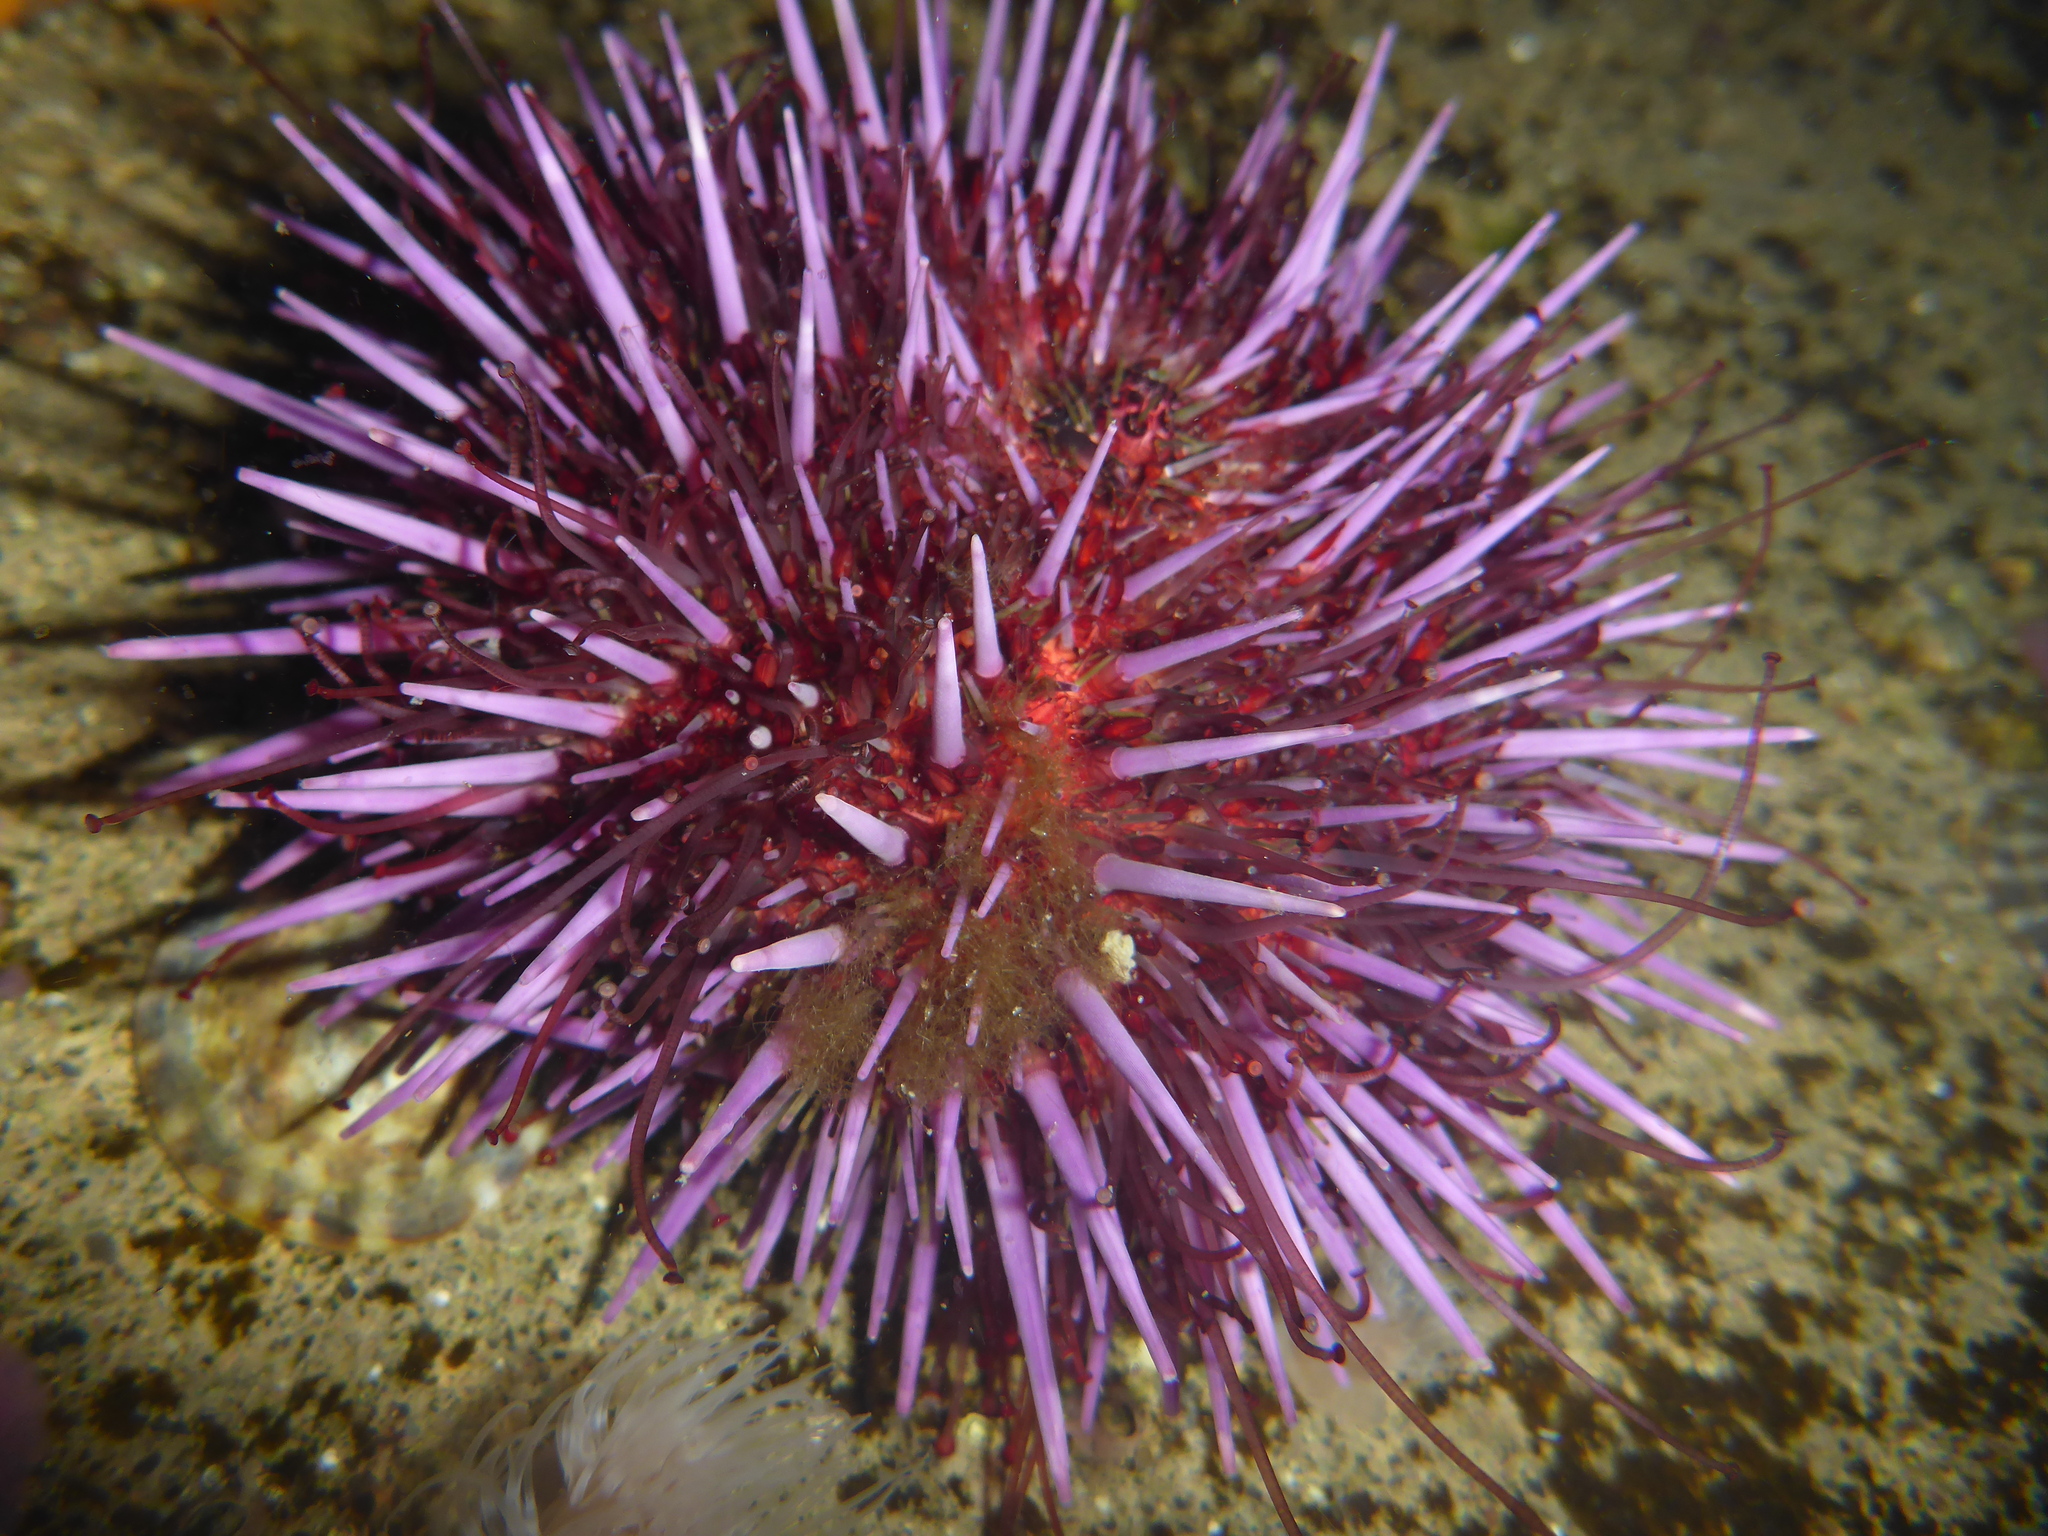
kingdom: Animalia
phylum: Echinodermata
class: Echinoidea
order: Camarodonta
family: Strongylocentrotidae
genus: Strongylocentrotus
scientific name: Strongylocentrotus purpuratus
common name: Purple sea urchin
